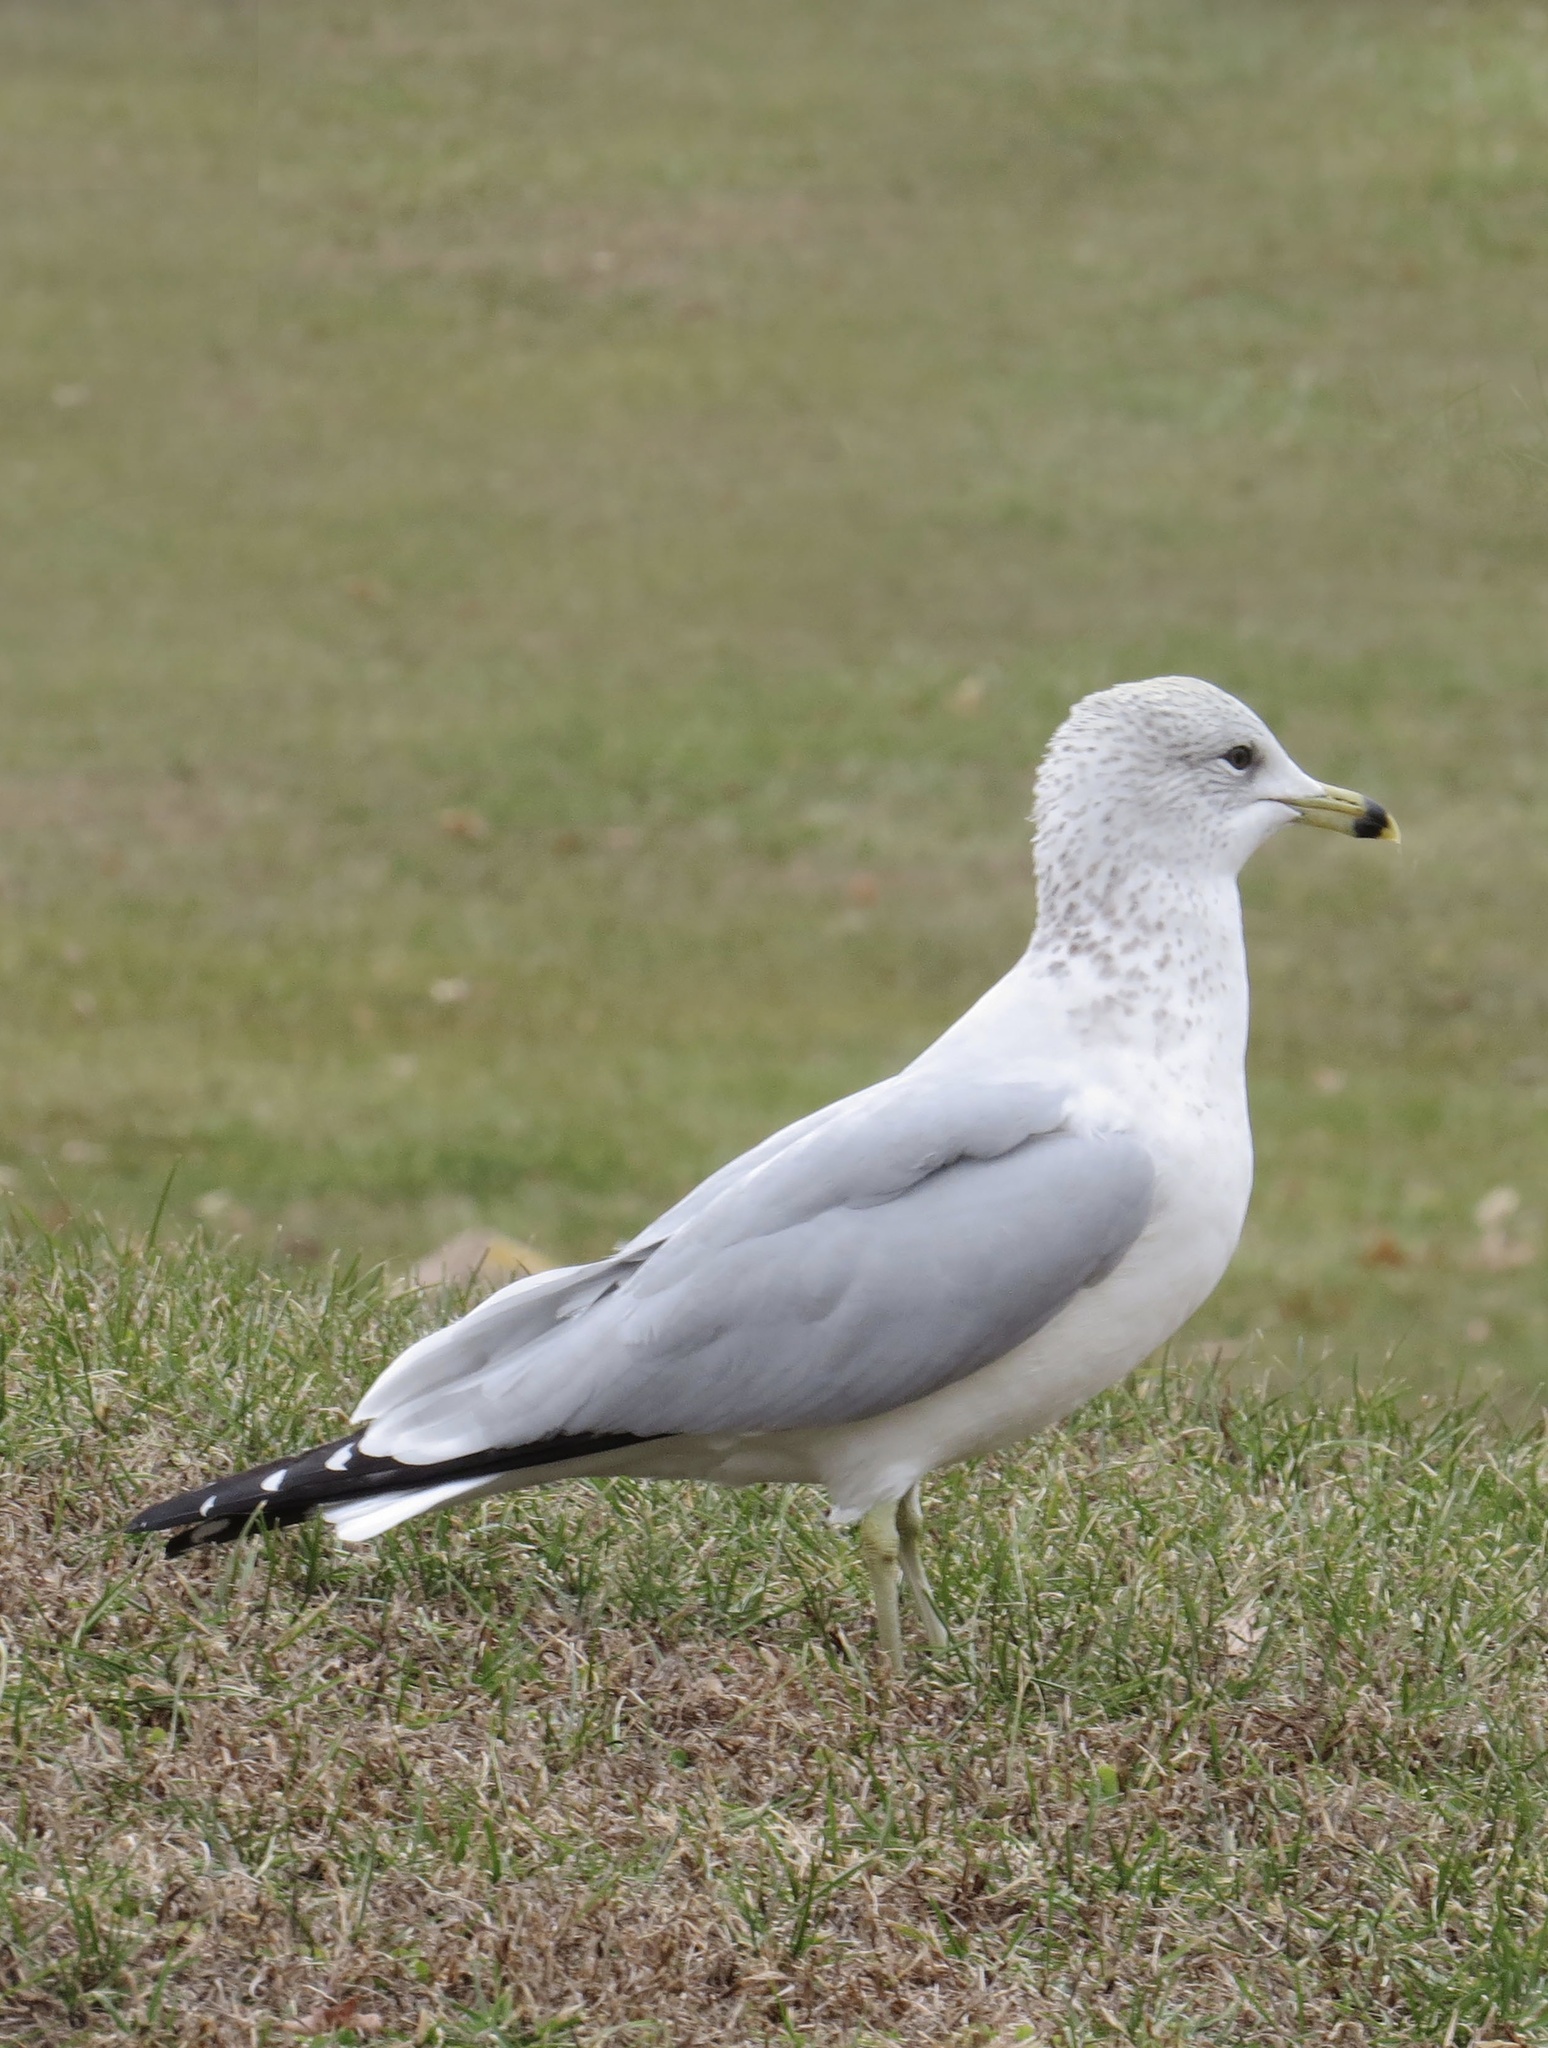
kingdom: Animalia
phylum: Chordata
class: Aves
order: Charadriiformes
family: Laridae
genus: Larus
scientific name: Larus delawarensis
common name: Ring-billed gull
